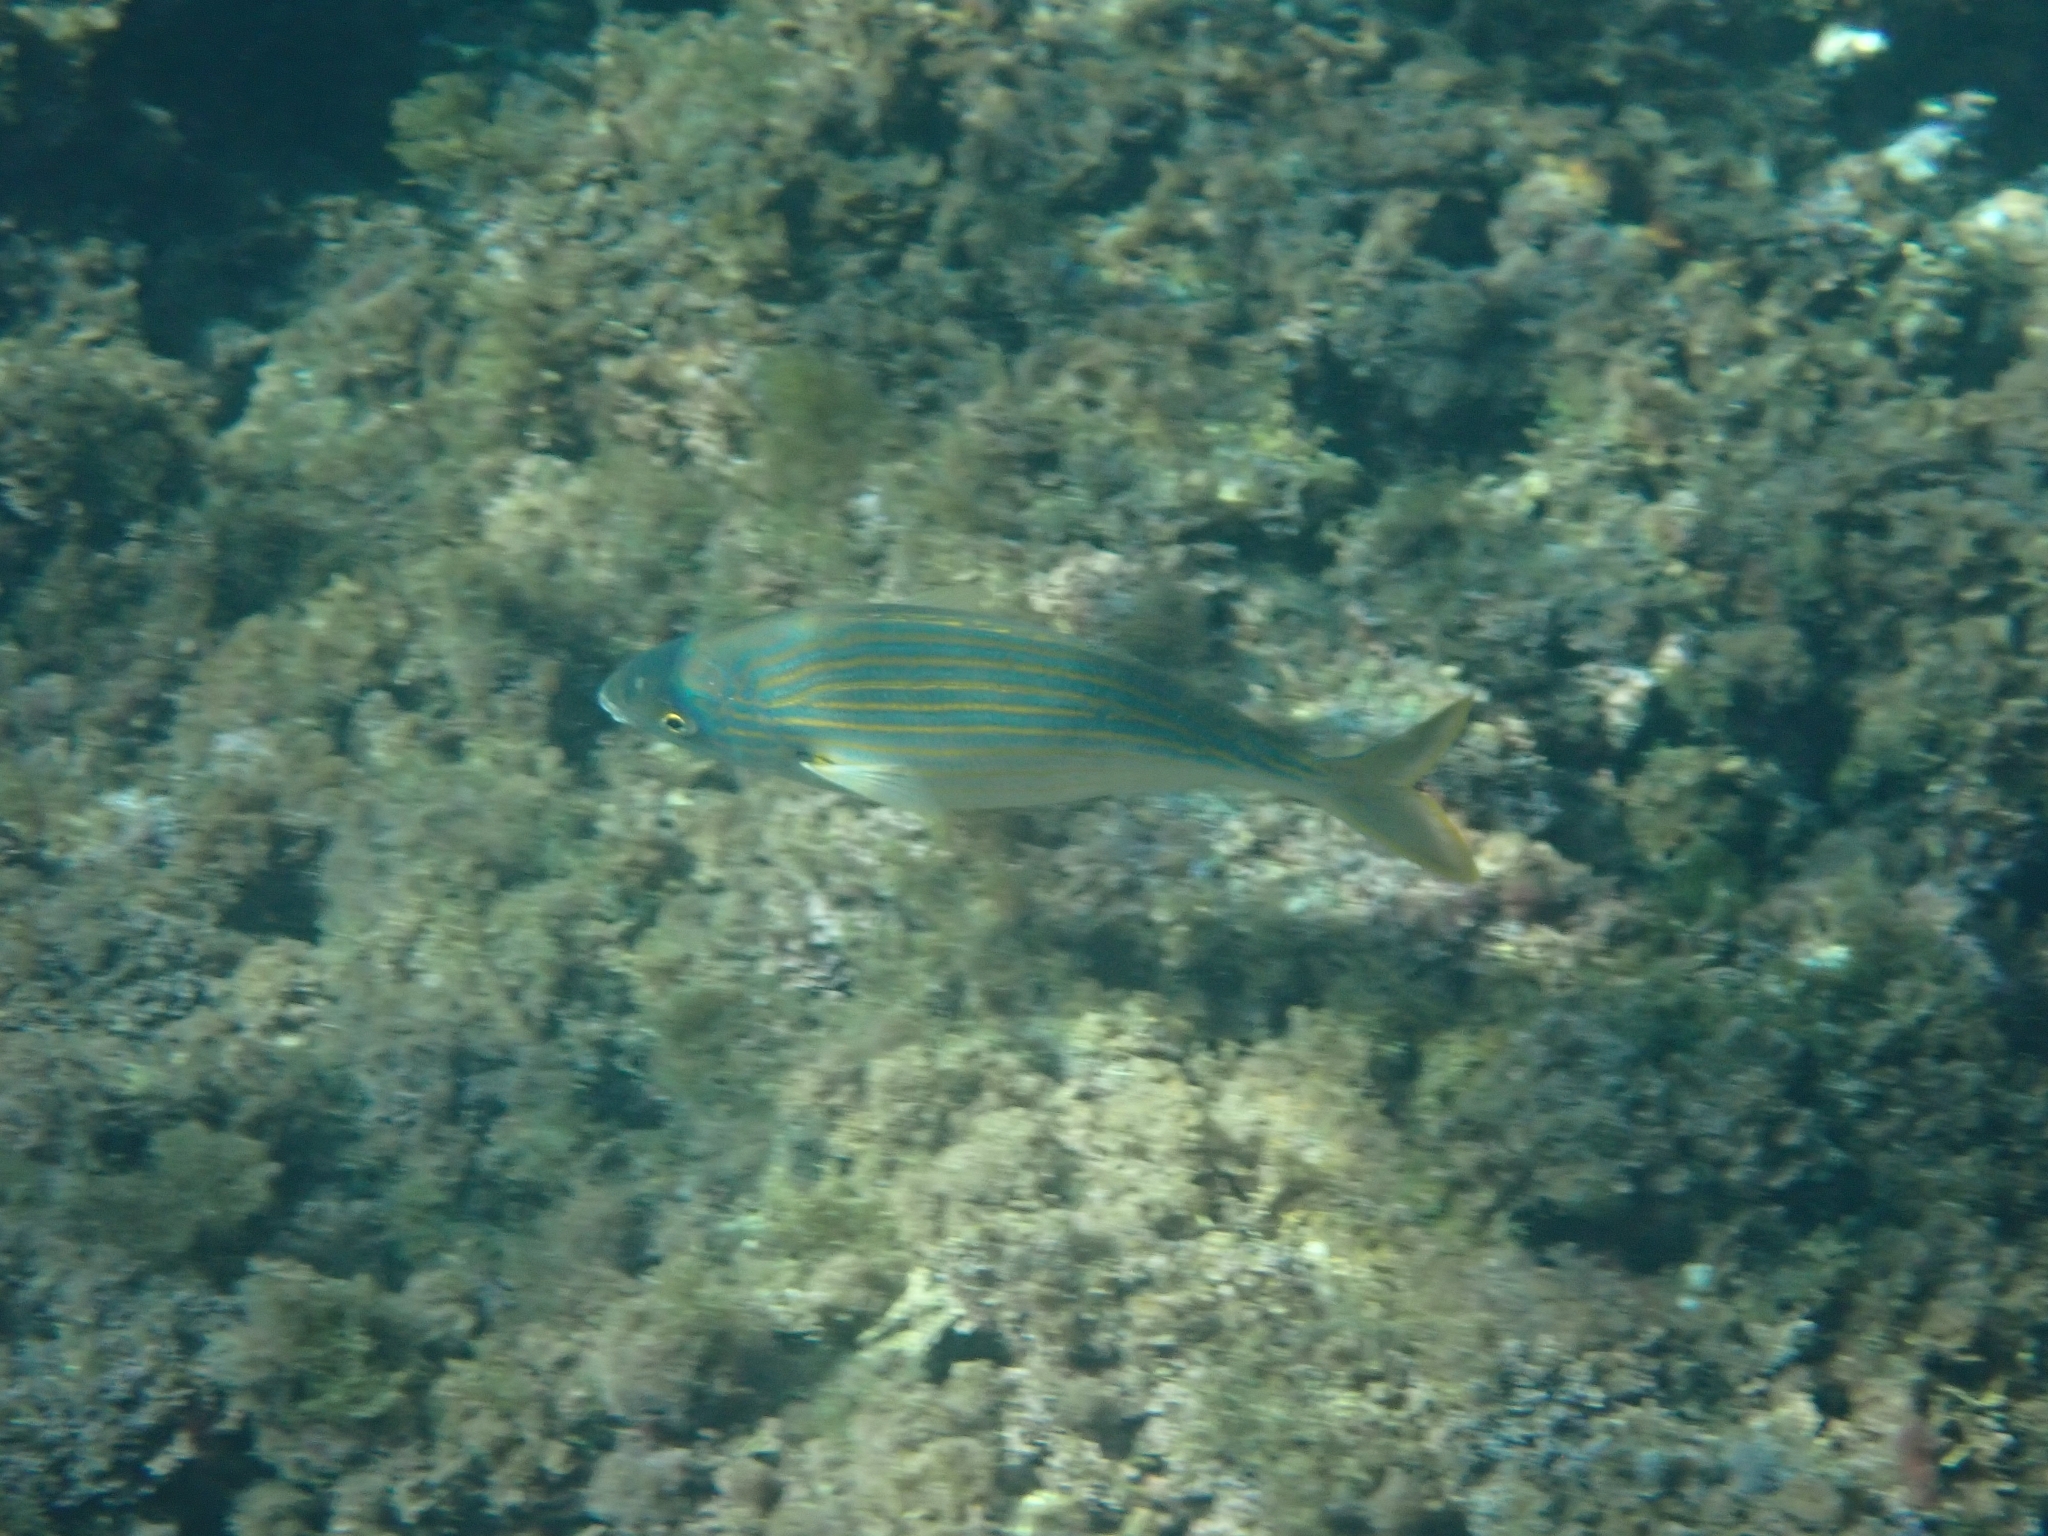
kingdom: Animalia
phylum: Chordata
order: Perciformes
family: Sparidae
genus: Sarpa
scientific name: Sarpa salpa
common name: Salema
